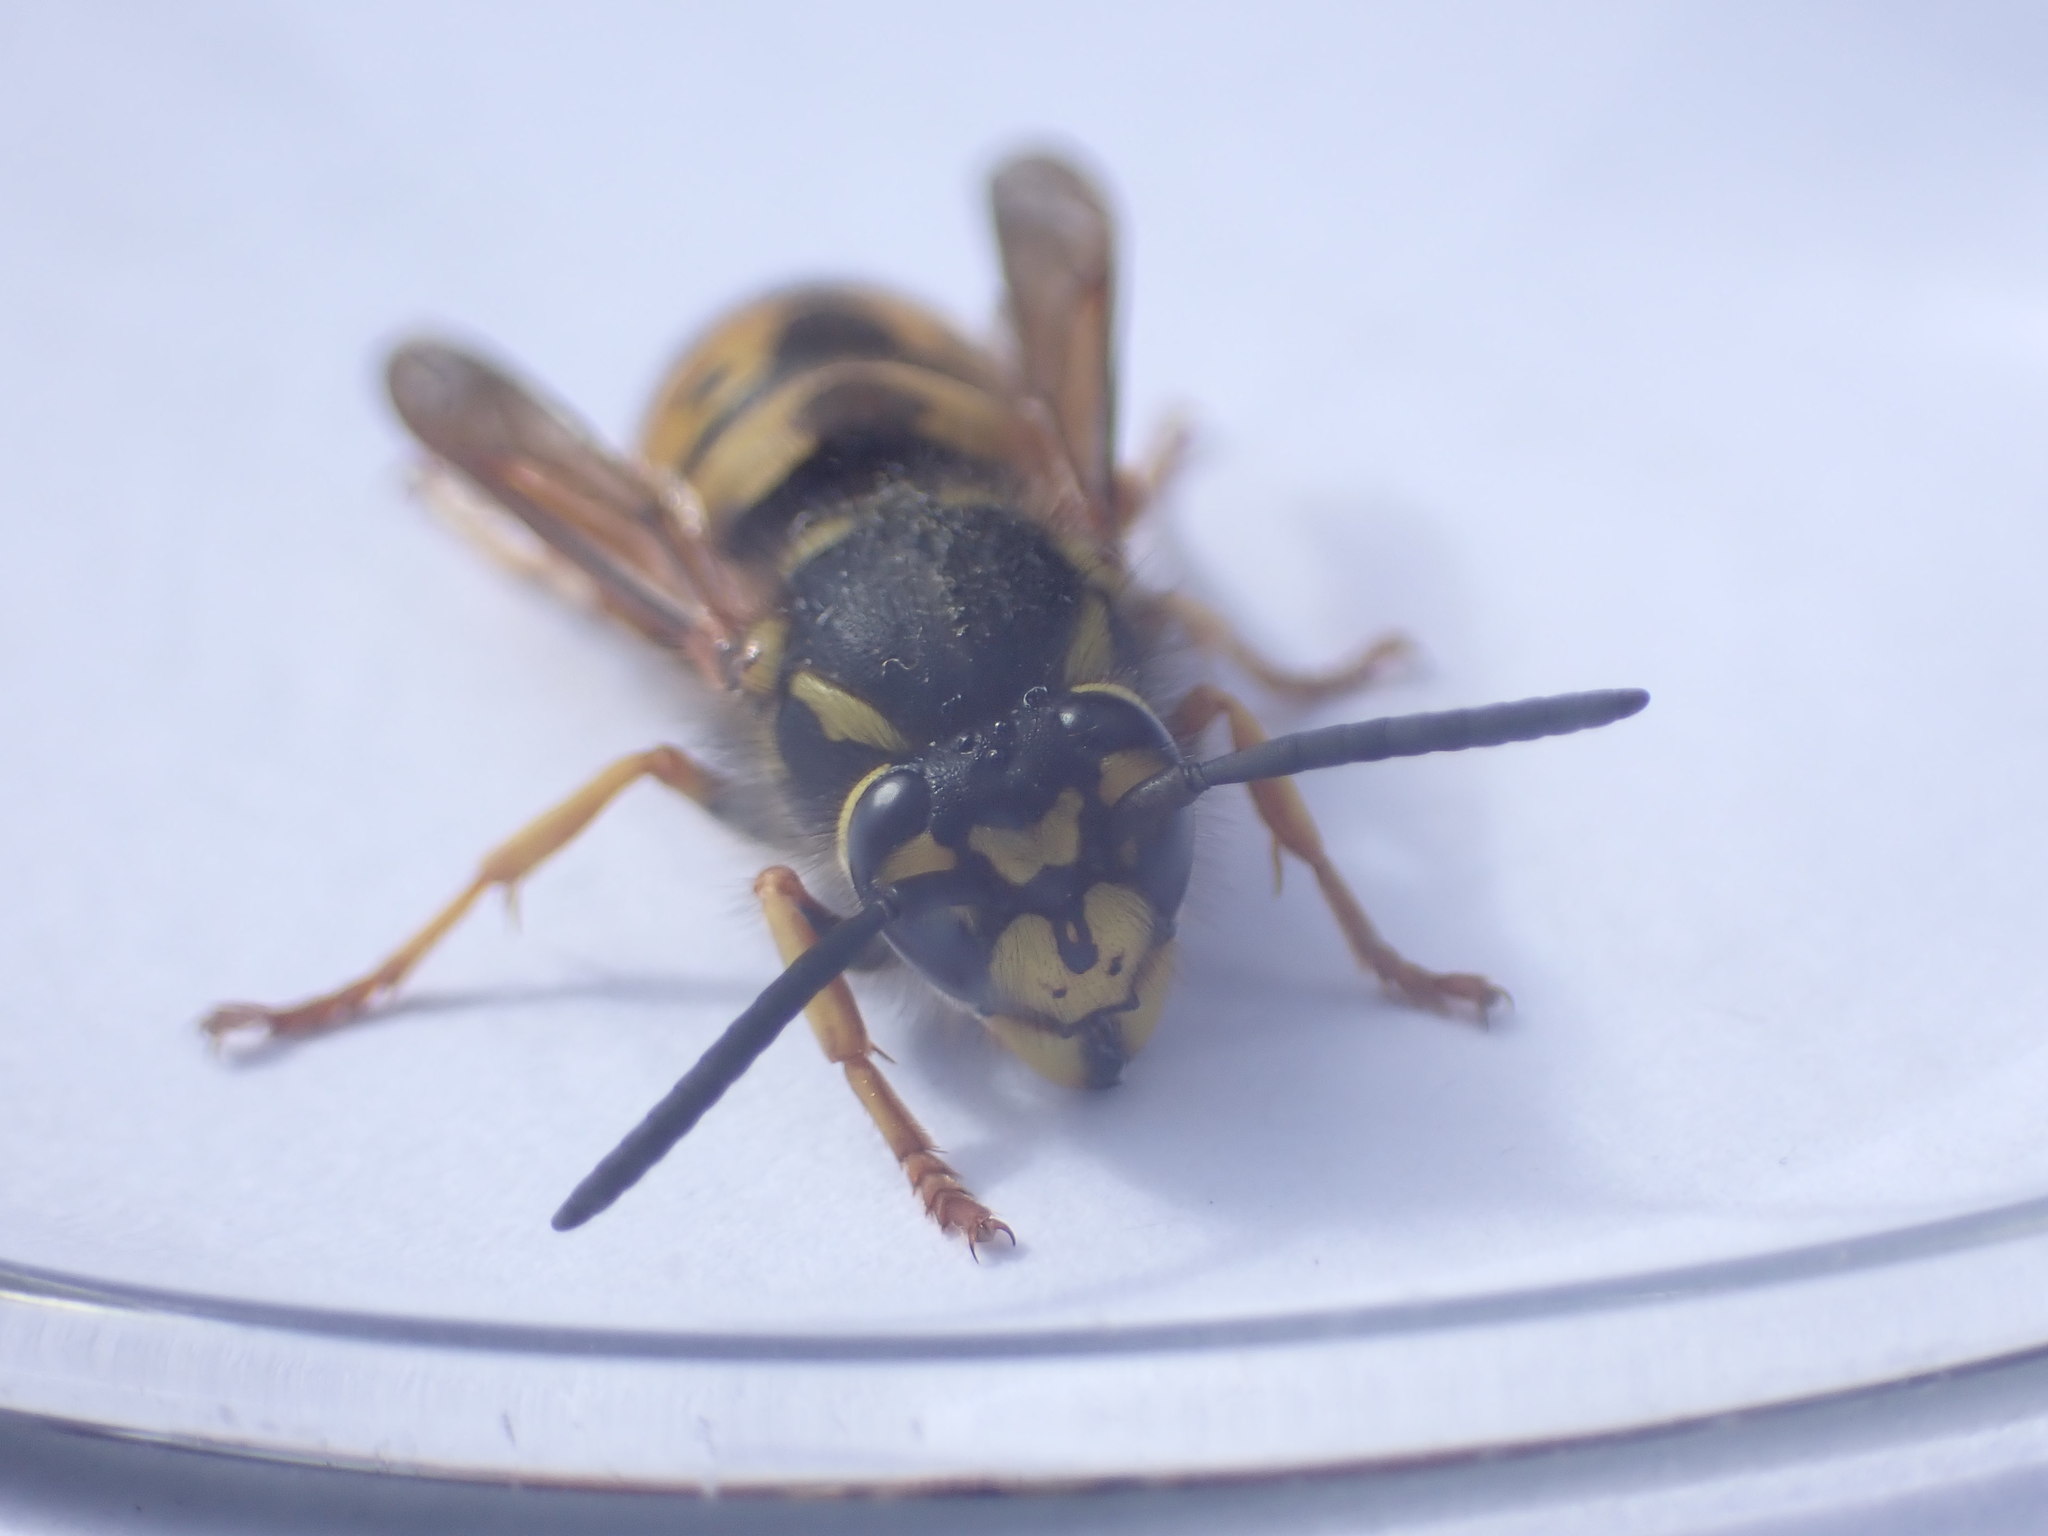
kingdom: Animalia
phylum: Arthropoda
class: Insecta
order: Hymenoptera
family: Vespidae
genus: Vespula
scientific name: Vespula germanica
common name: German wasp
